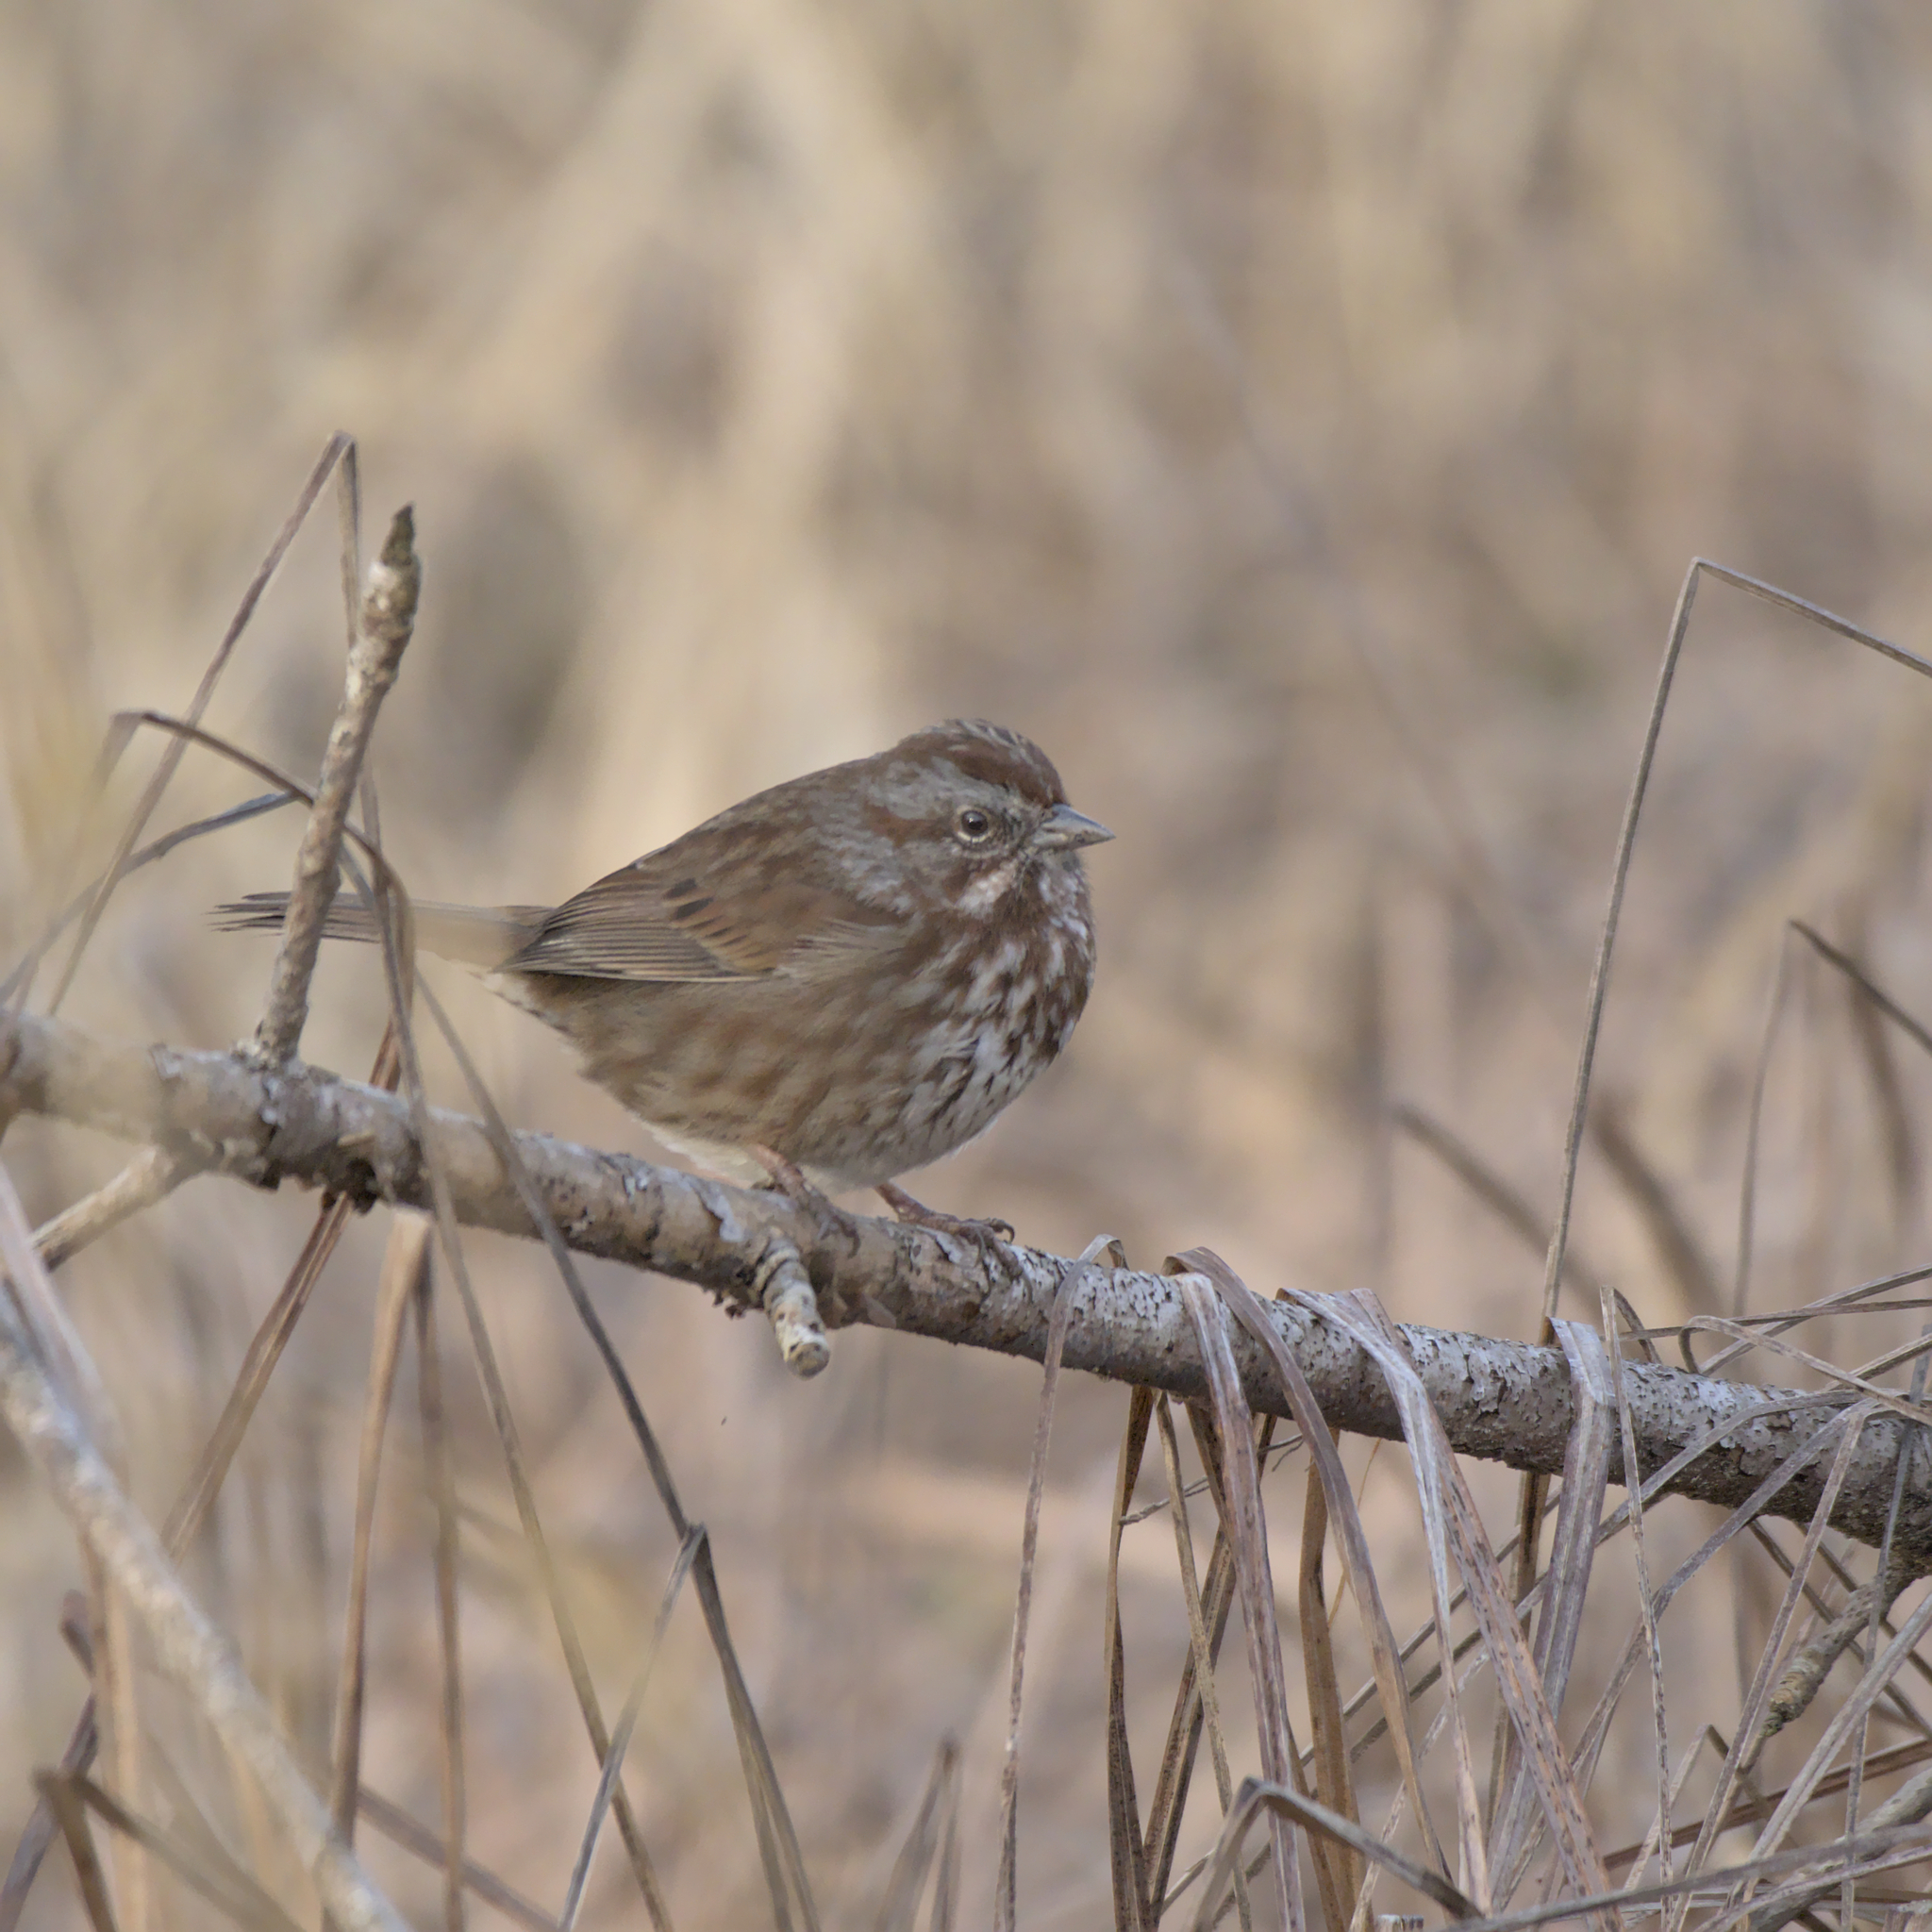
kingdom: Animalia
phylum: Chordata
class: Aves
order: Passeriformes
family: Passerellidae
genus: Melospiza
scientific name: Melospiza melodia
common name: Song sparrow
